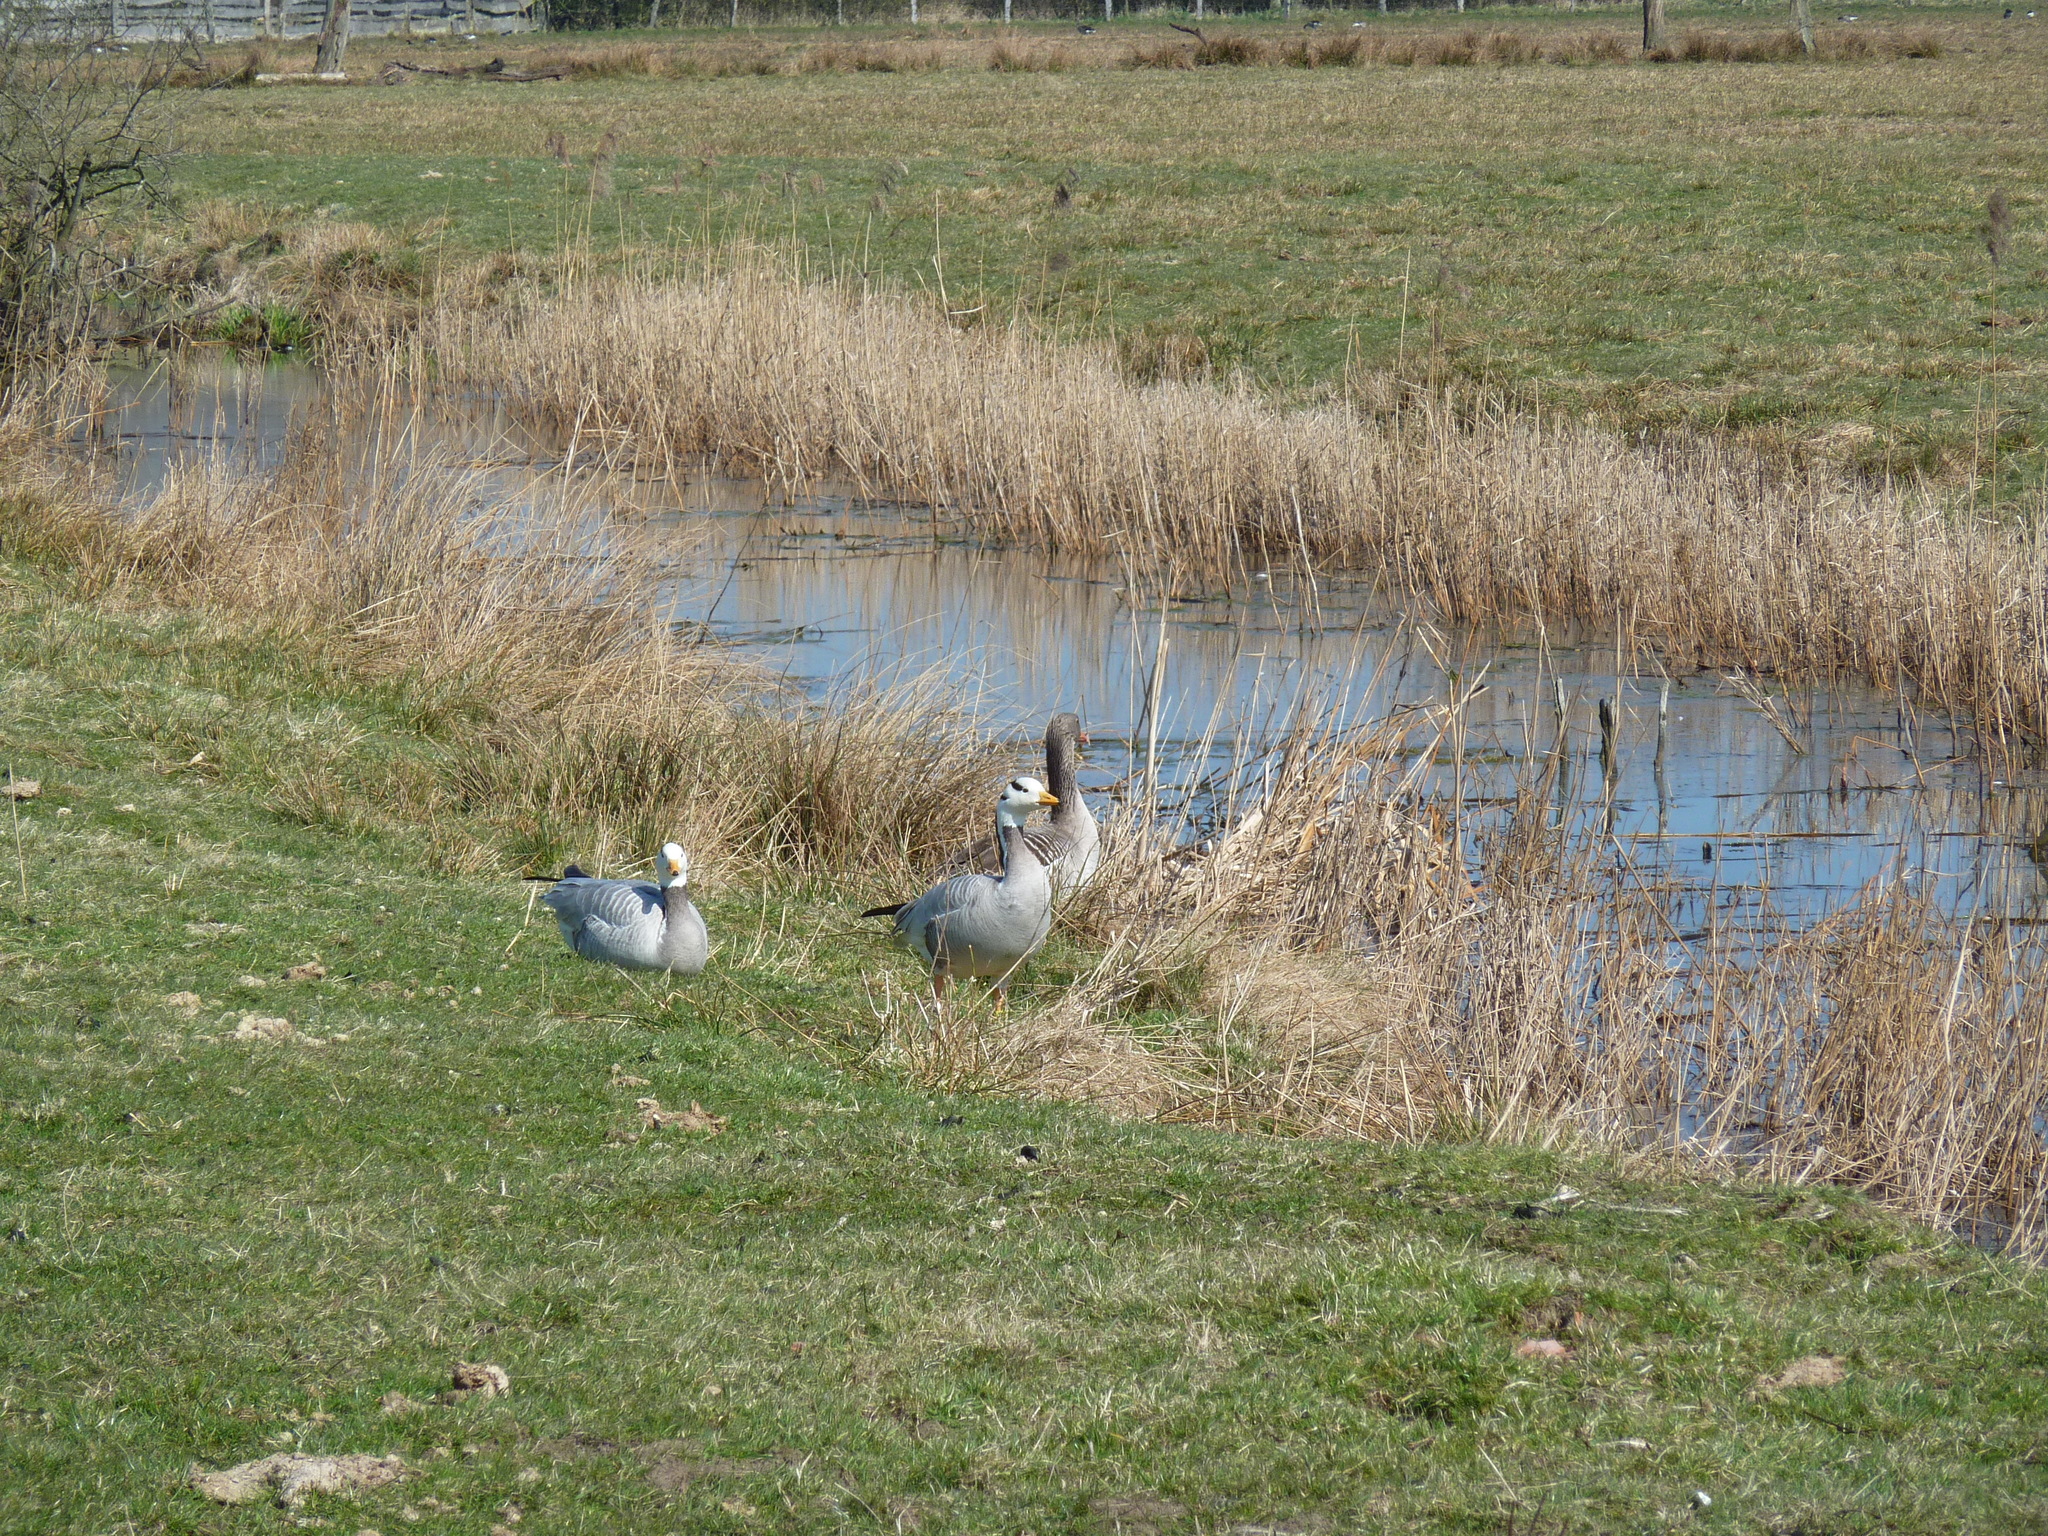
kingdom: Animalia
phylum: Chordata
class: Aves
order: Anseriformes
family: Anatidae
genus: Anser
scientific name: Anser indicus
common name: Bar-headed goose
